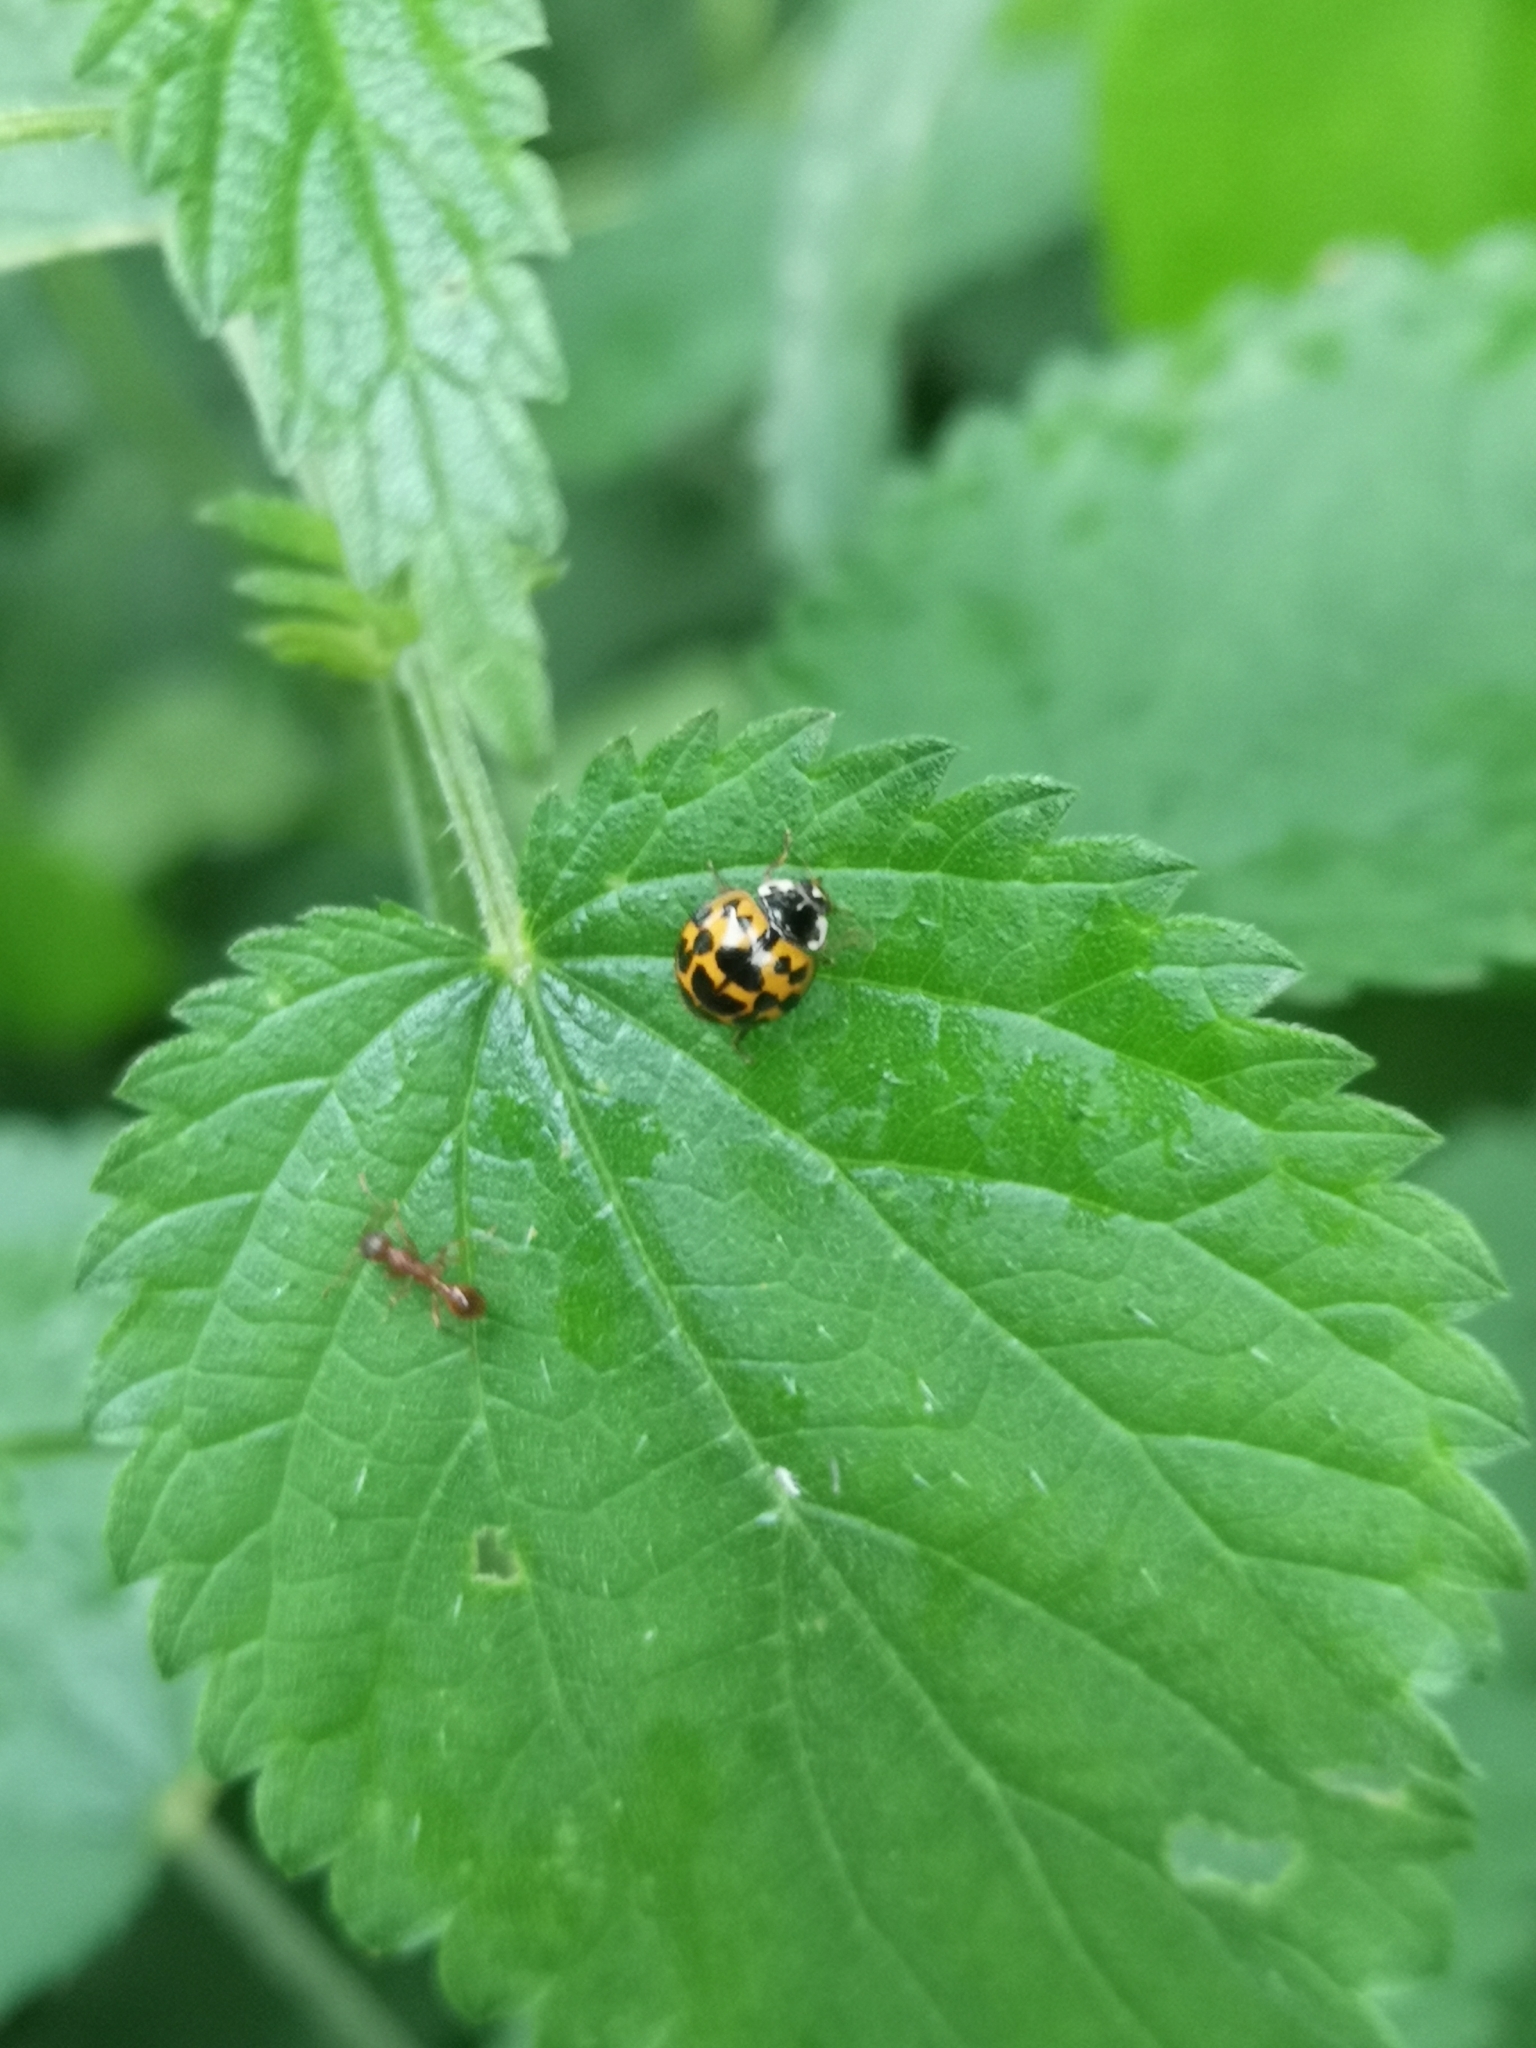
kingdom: Animalia
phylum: Arthropoda
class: Insecta
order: Coleoptera
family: Coccinellidae
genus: Harmonia
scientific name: Harmonia axyridis
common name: Harlequin ladybird
